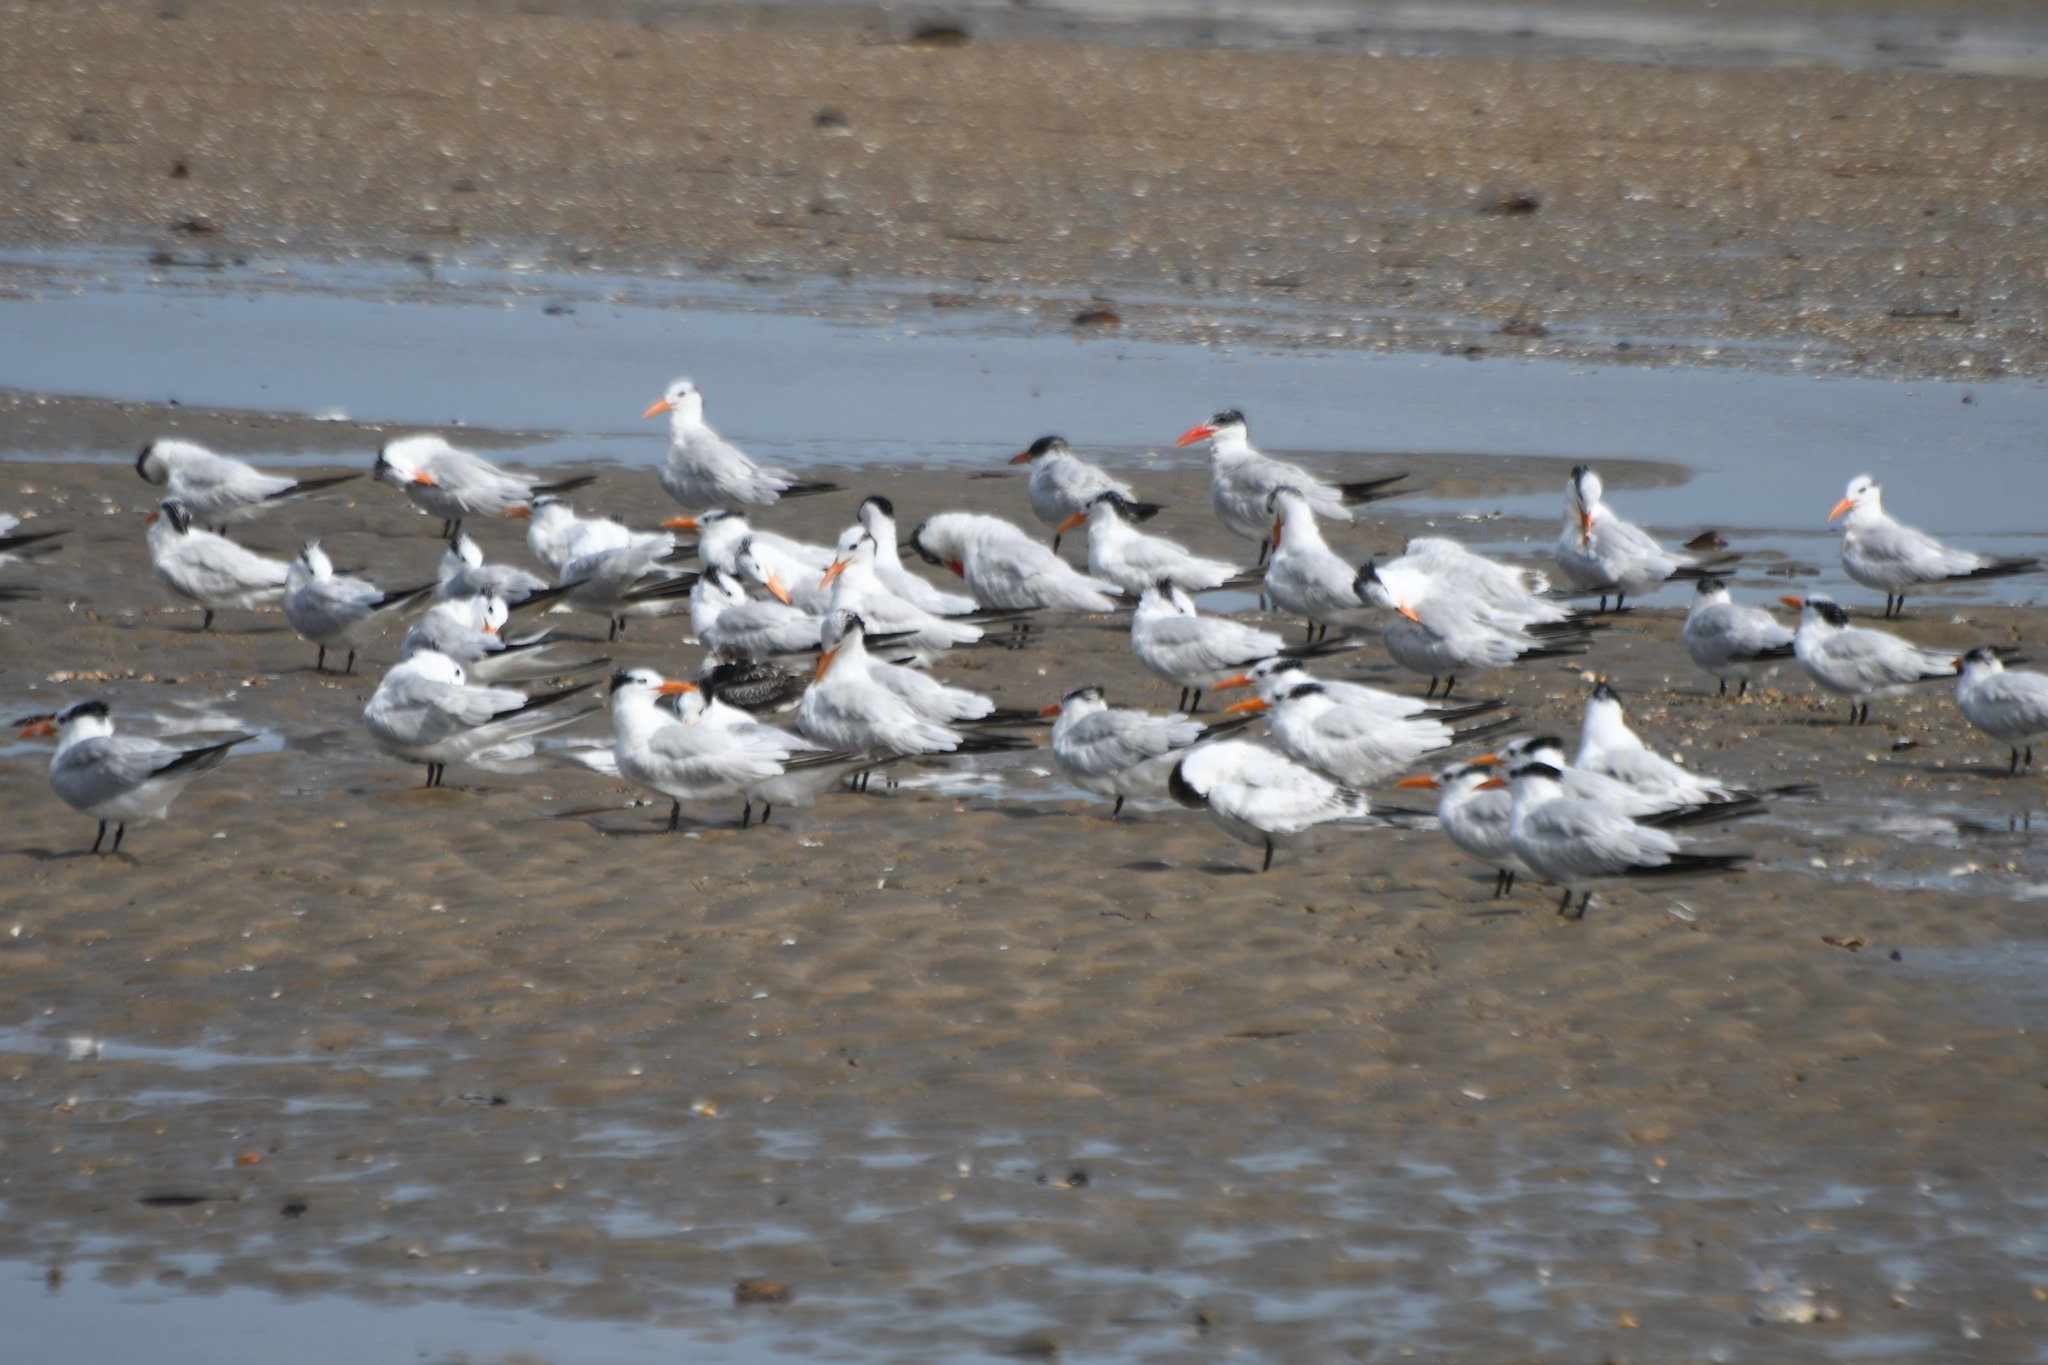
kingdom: Animalia
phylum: Chordata
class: Aves
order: Charadriiformes
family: Laridae
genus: Thalasseus
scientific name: Thalasseus maximus
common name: Royal tern
